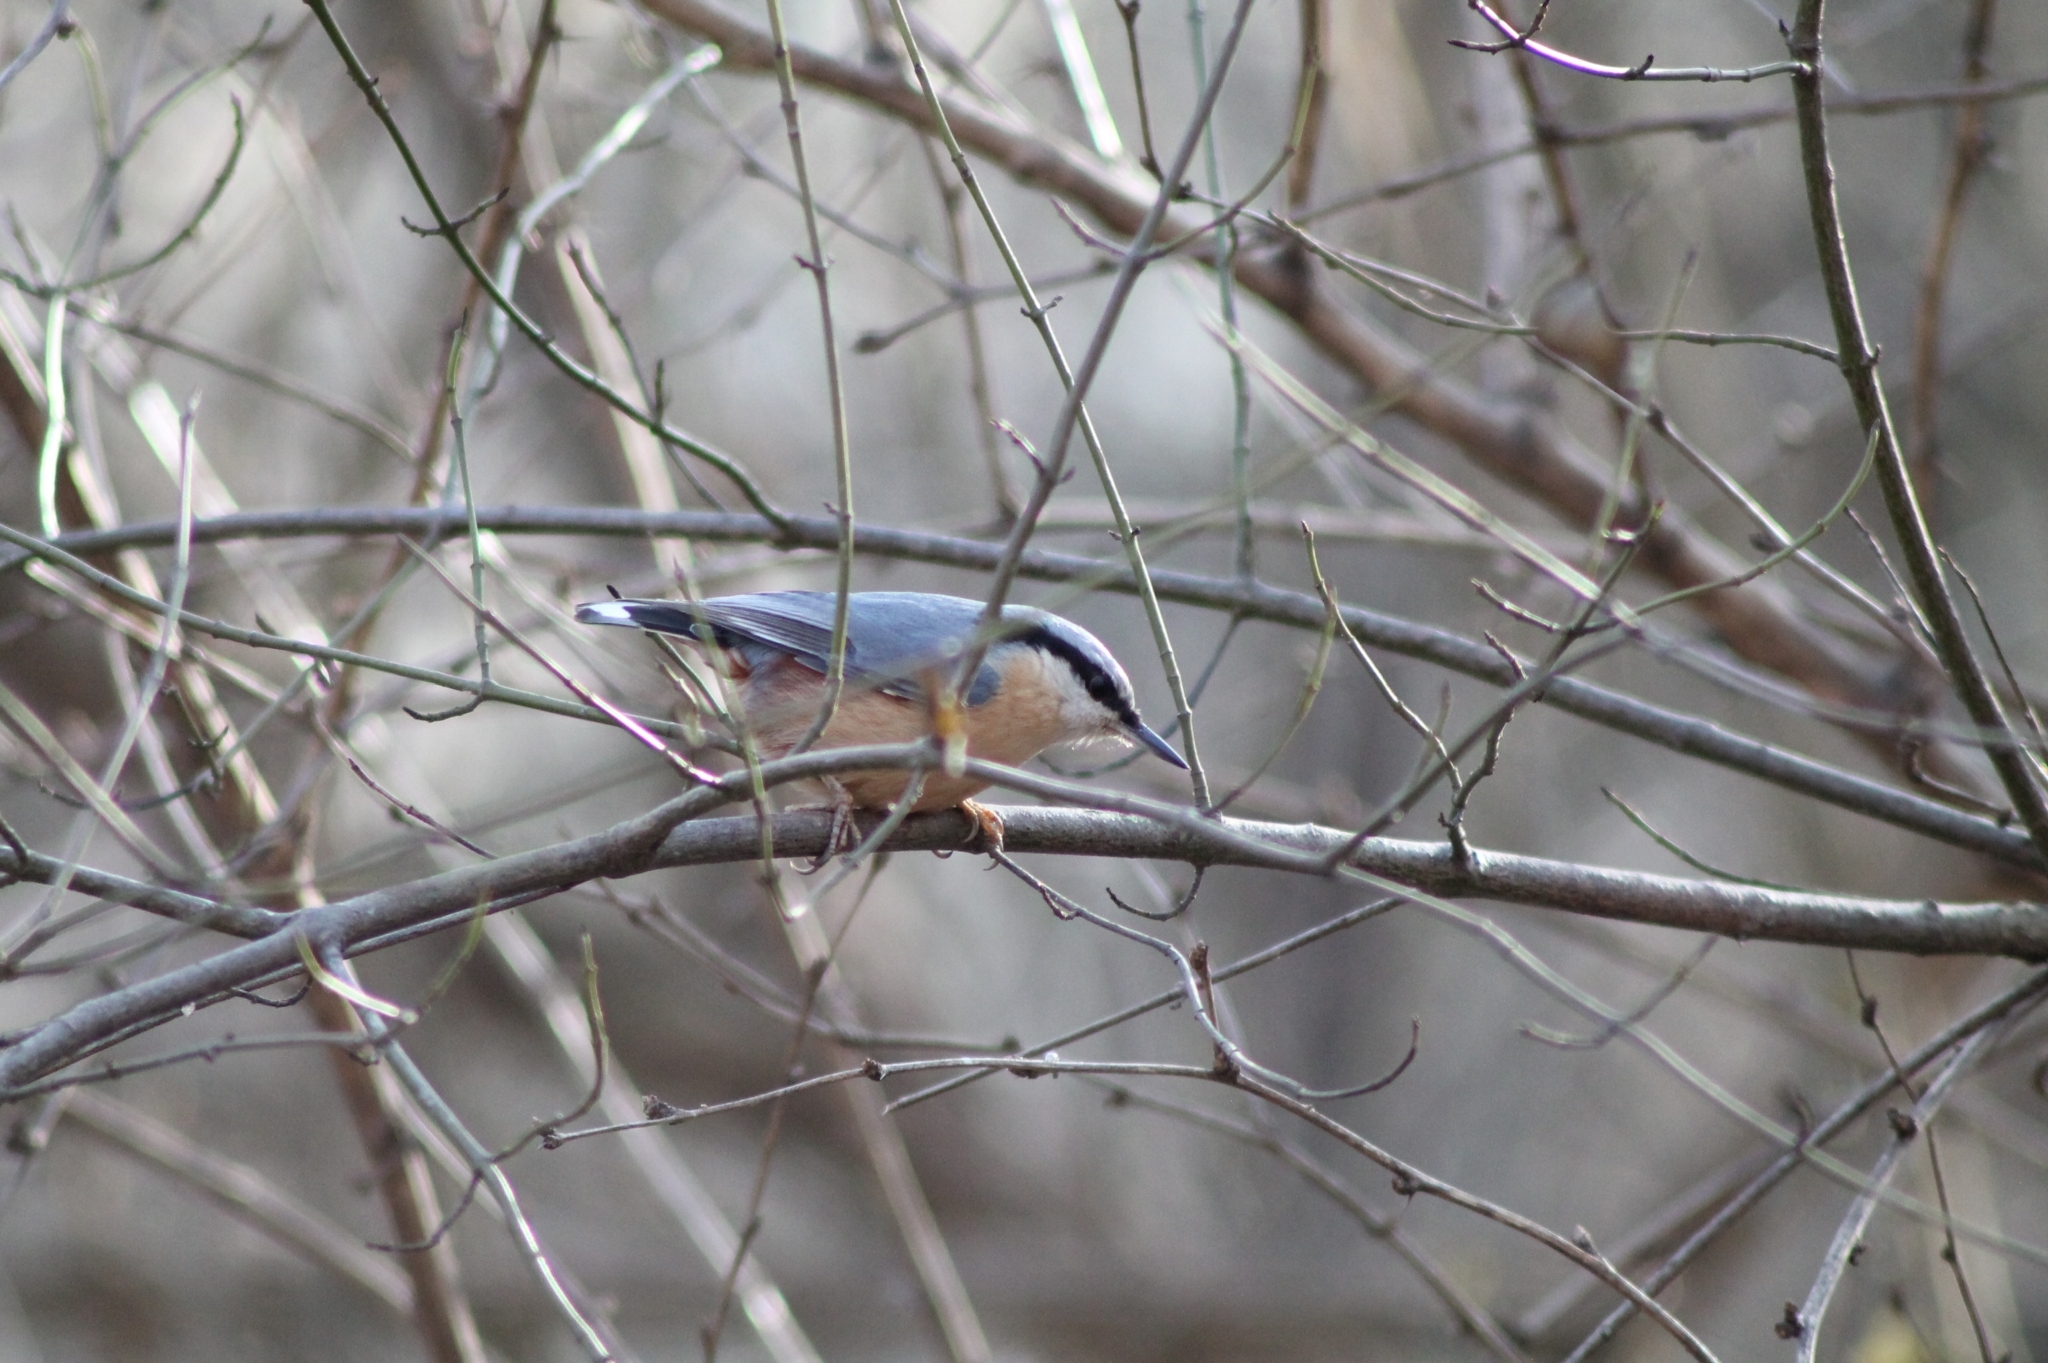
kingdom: Animalia
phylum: Chordata
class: Aves
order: Passeriformes
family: Sittidae
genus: Sitta
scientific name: Sitta europaea
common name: Eurasian nuthatch
